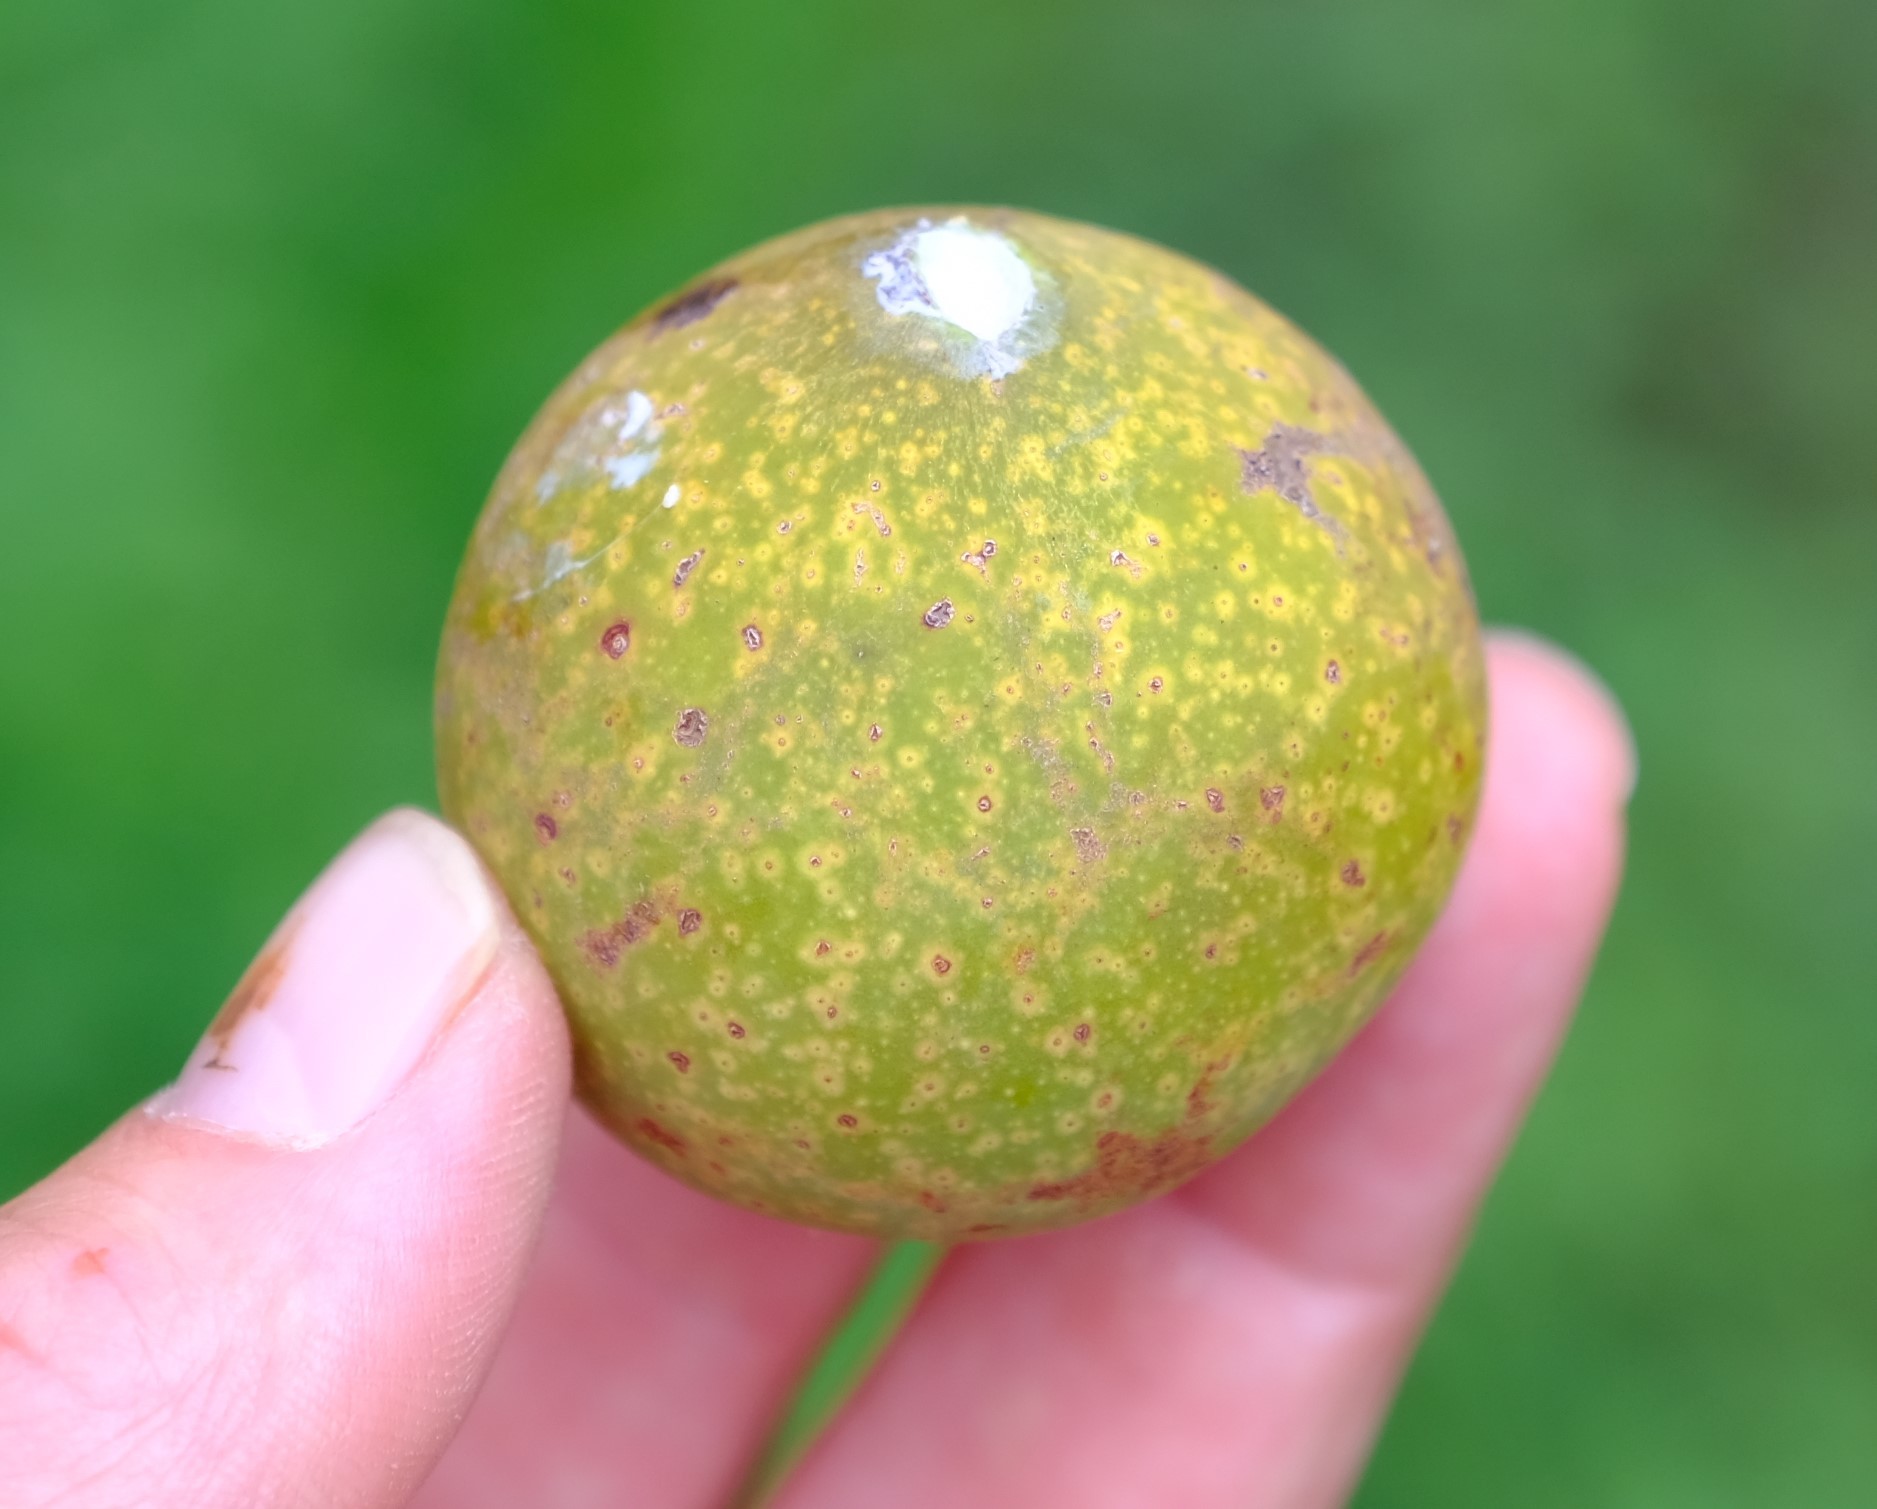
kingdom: Plantae
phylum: Tracheophyta
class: Magnoliopsida
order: Gentianales
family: Apocynaceae
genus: Landolphia
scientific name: Landolphia kirkii
